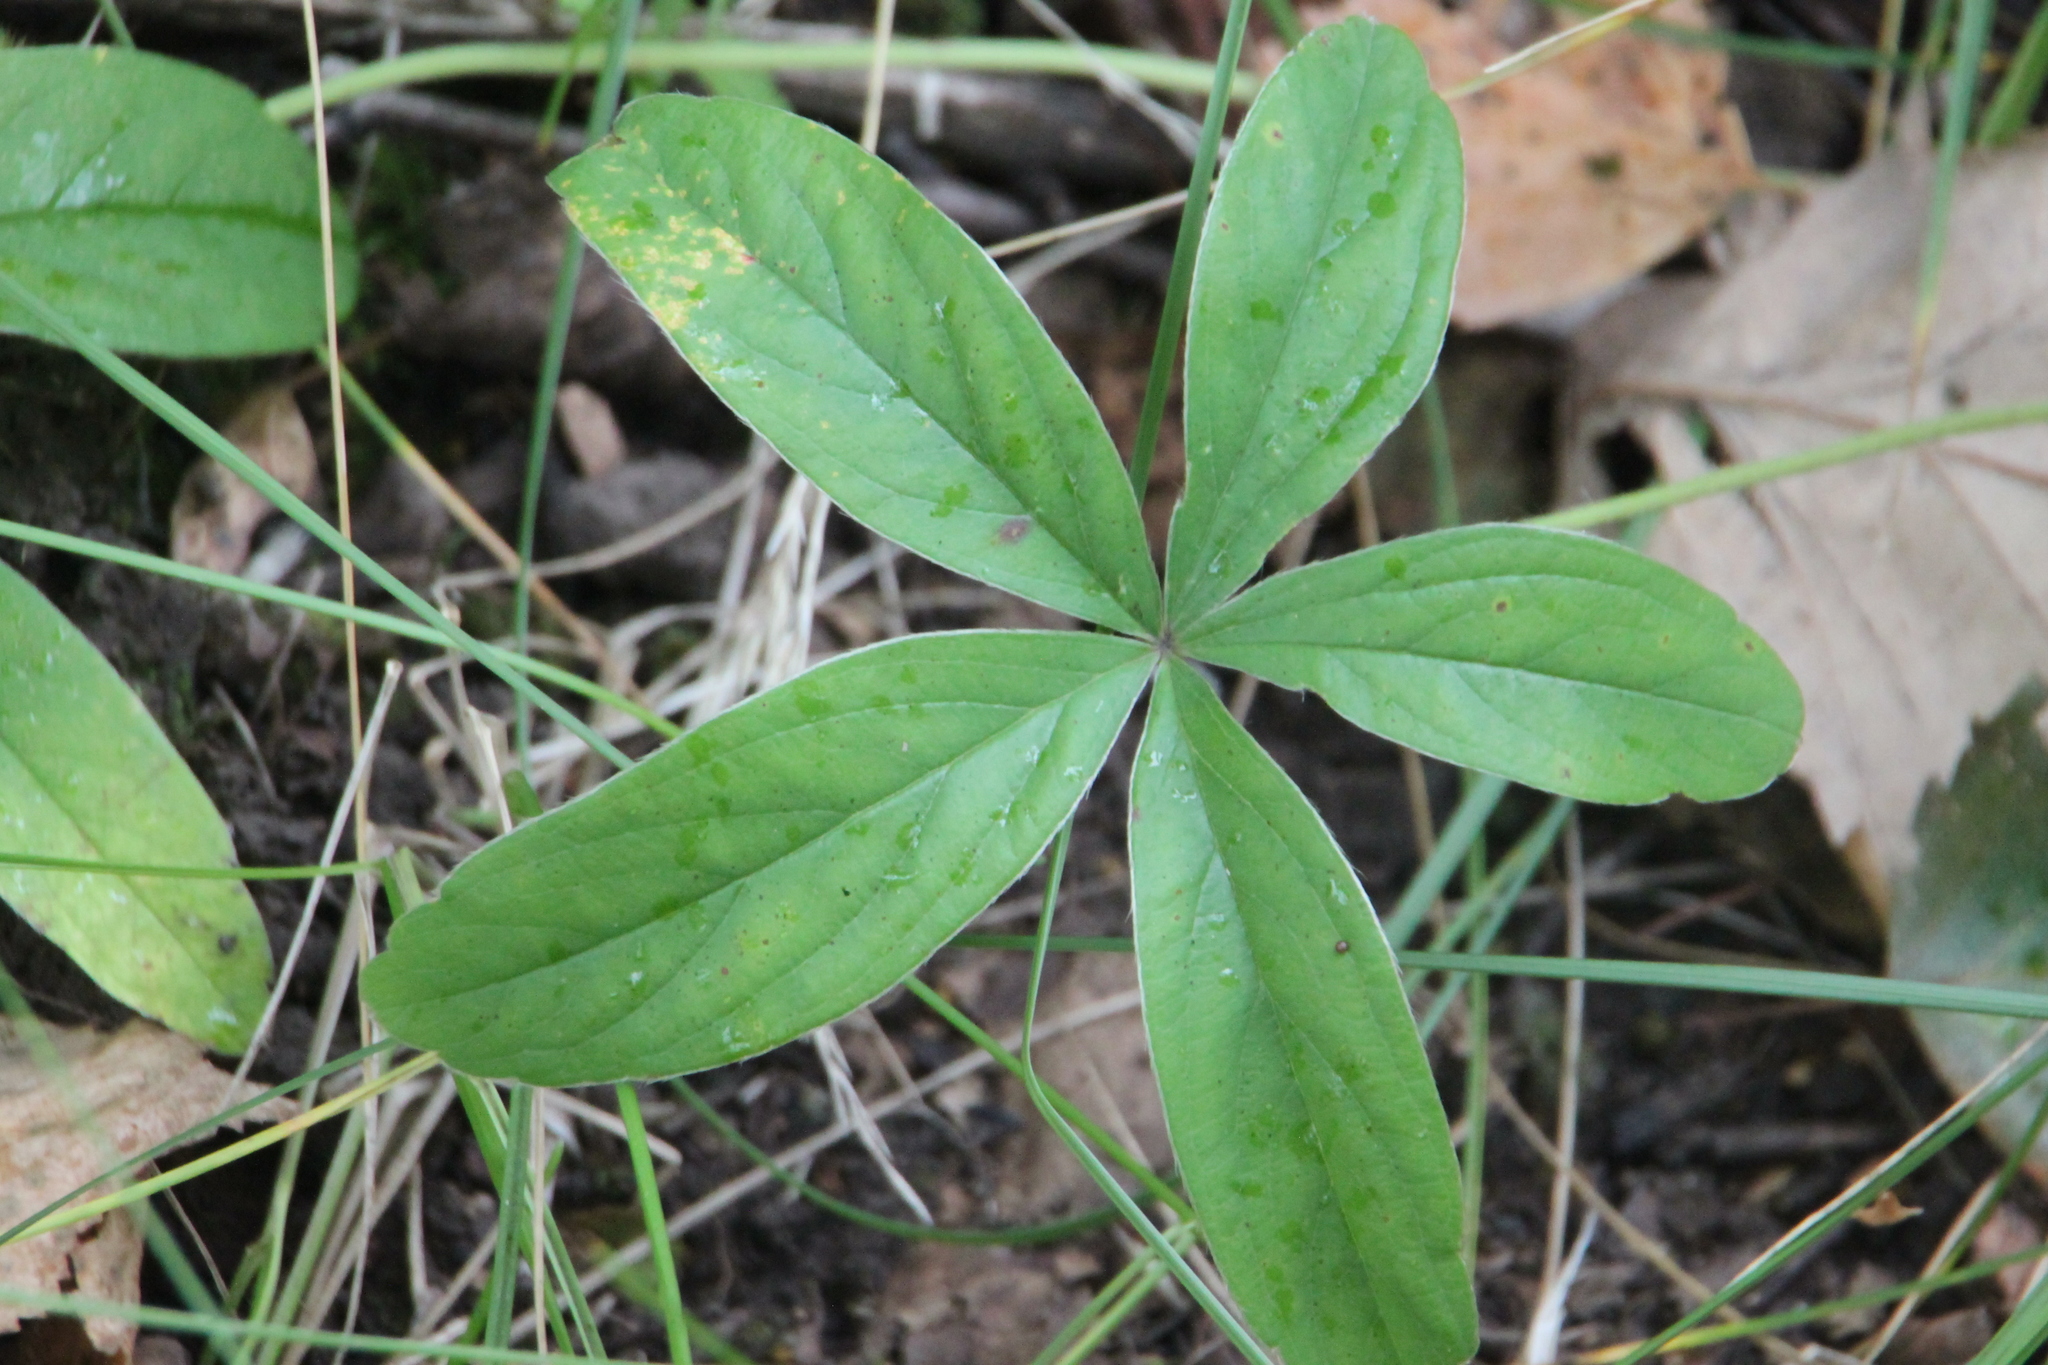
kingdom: Plantae
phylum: Tracheophyta
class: Magnoliopsida
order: Rosales
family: Rosaceae
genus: Potentilla
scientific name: Potentilla alba
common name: White cinquefoil
